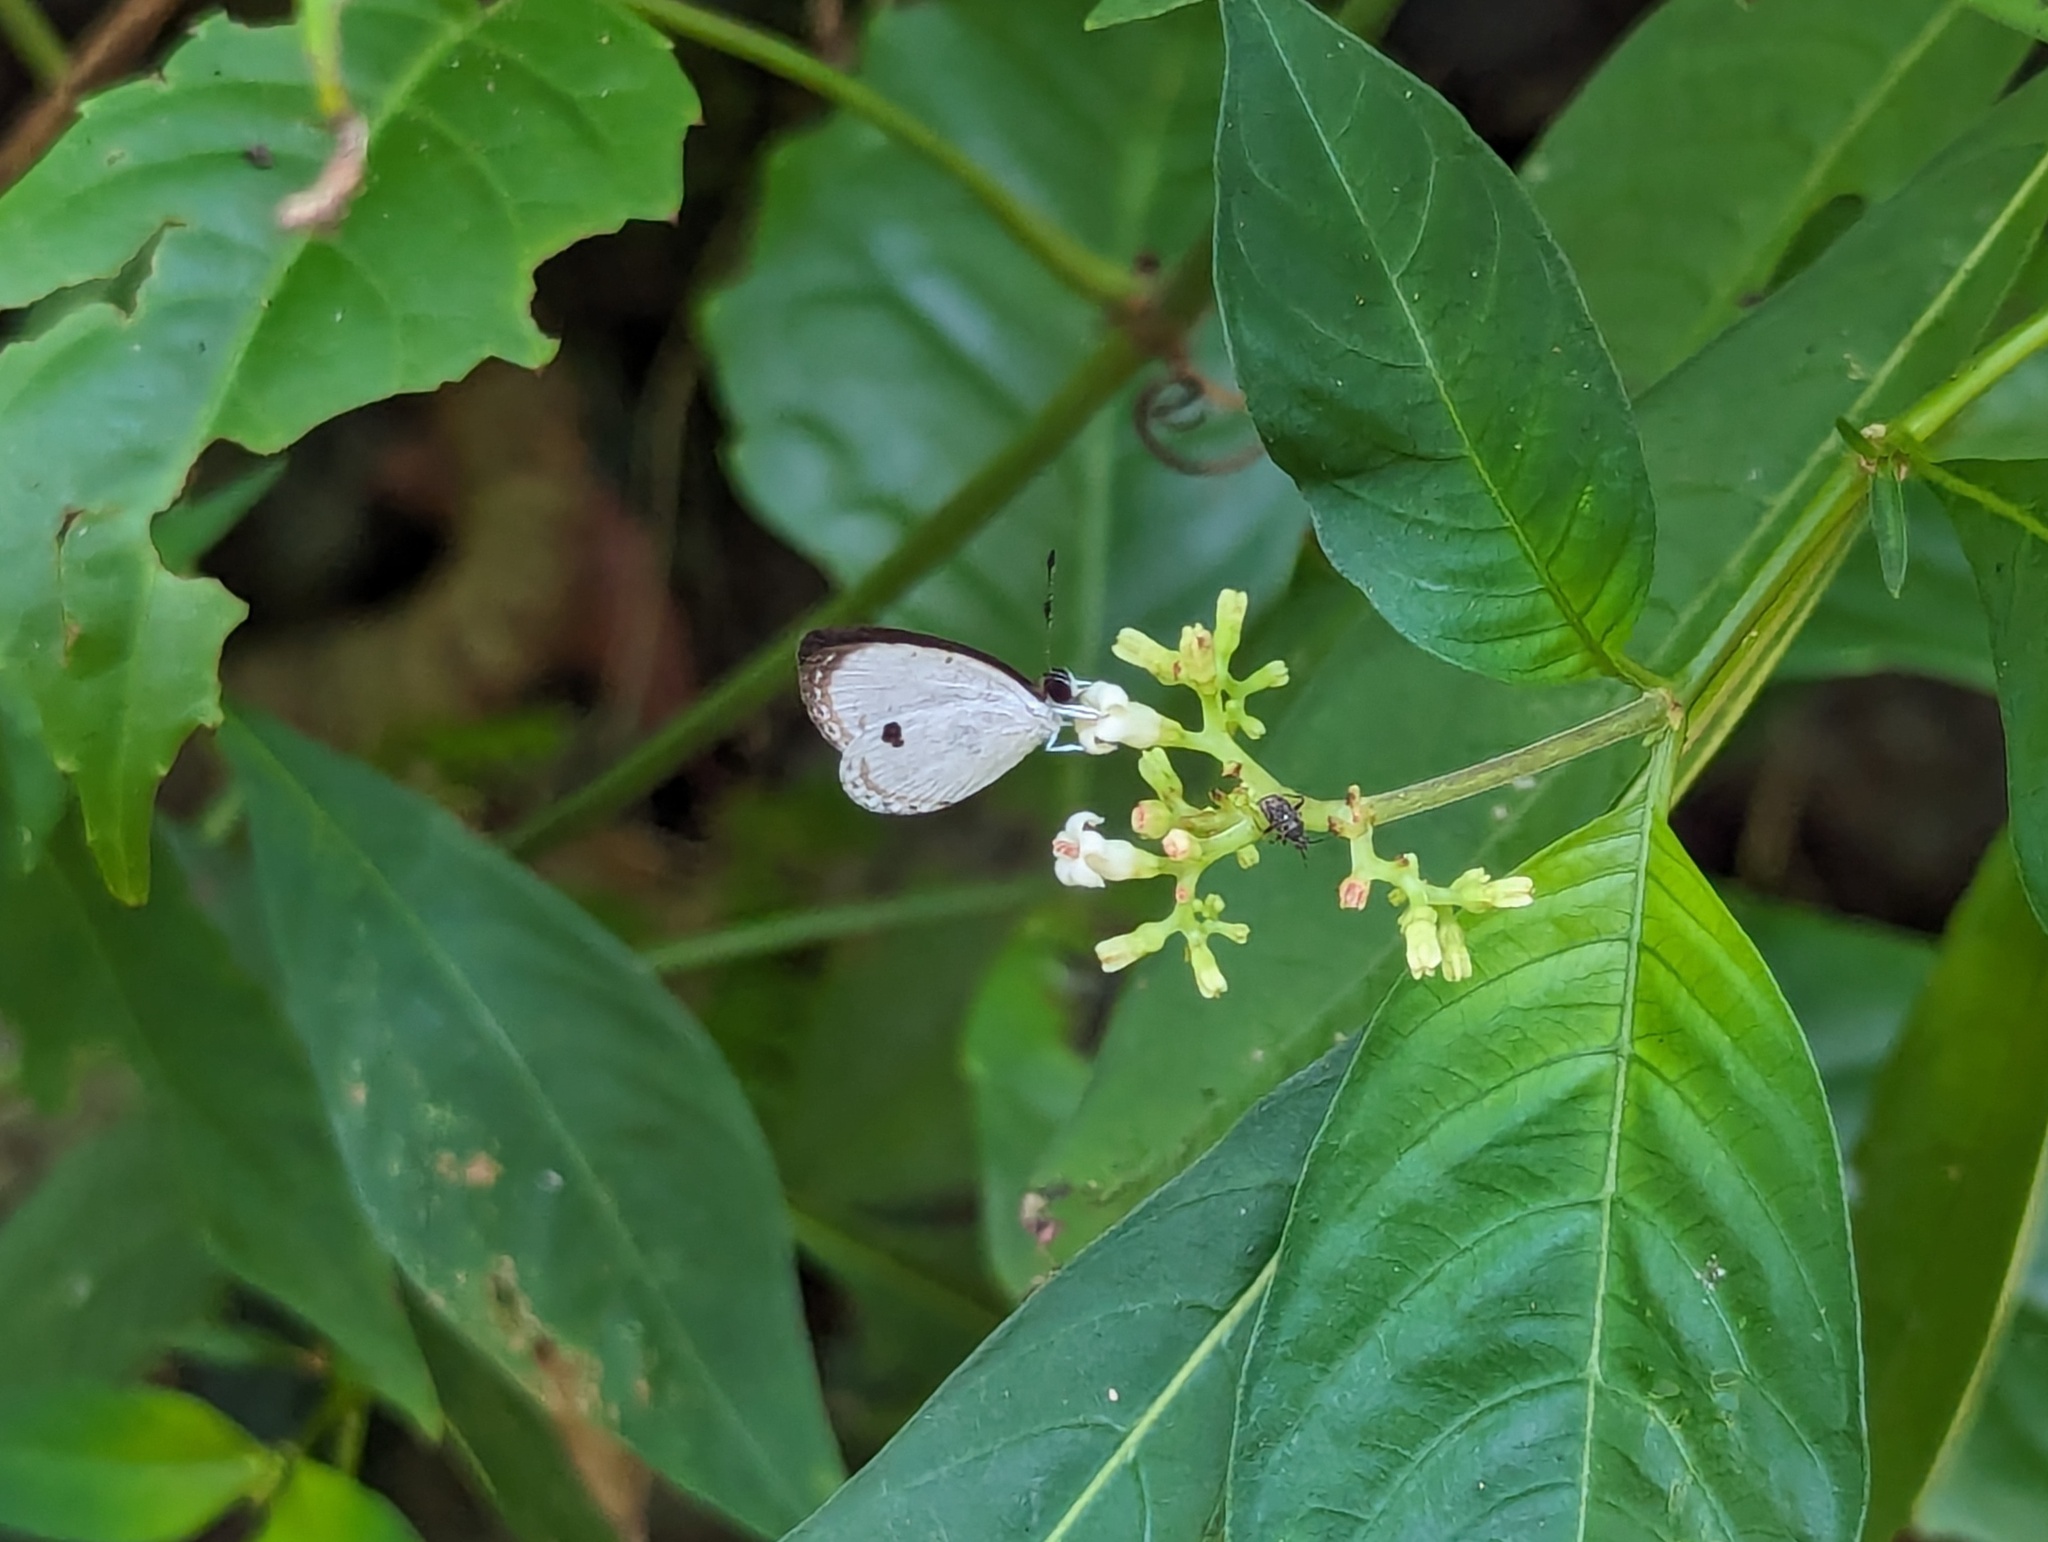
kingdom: Animalia
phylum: Arthropoda
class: Insecta
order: Lepidoptera
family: Lycaenidae
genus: Pithecops
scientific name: Pithecops corvus
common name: Forest quaker
